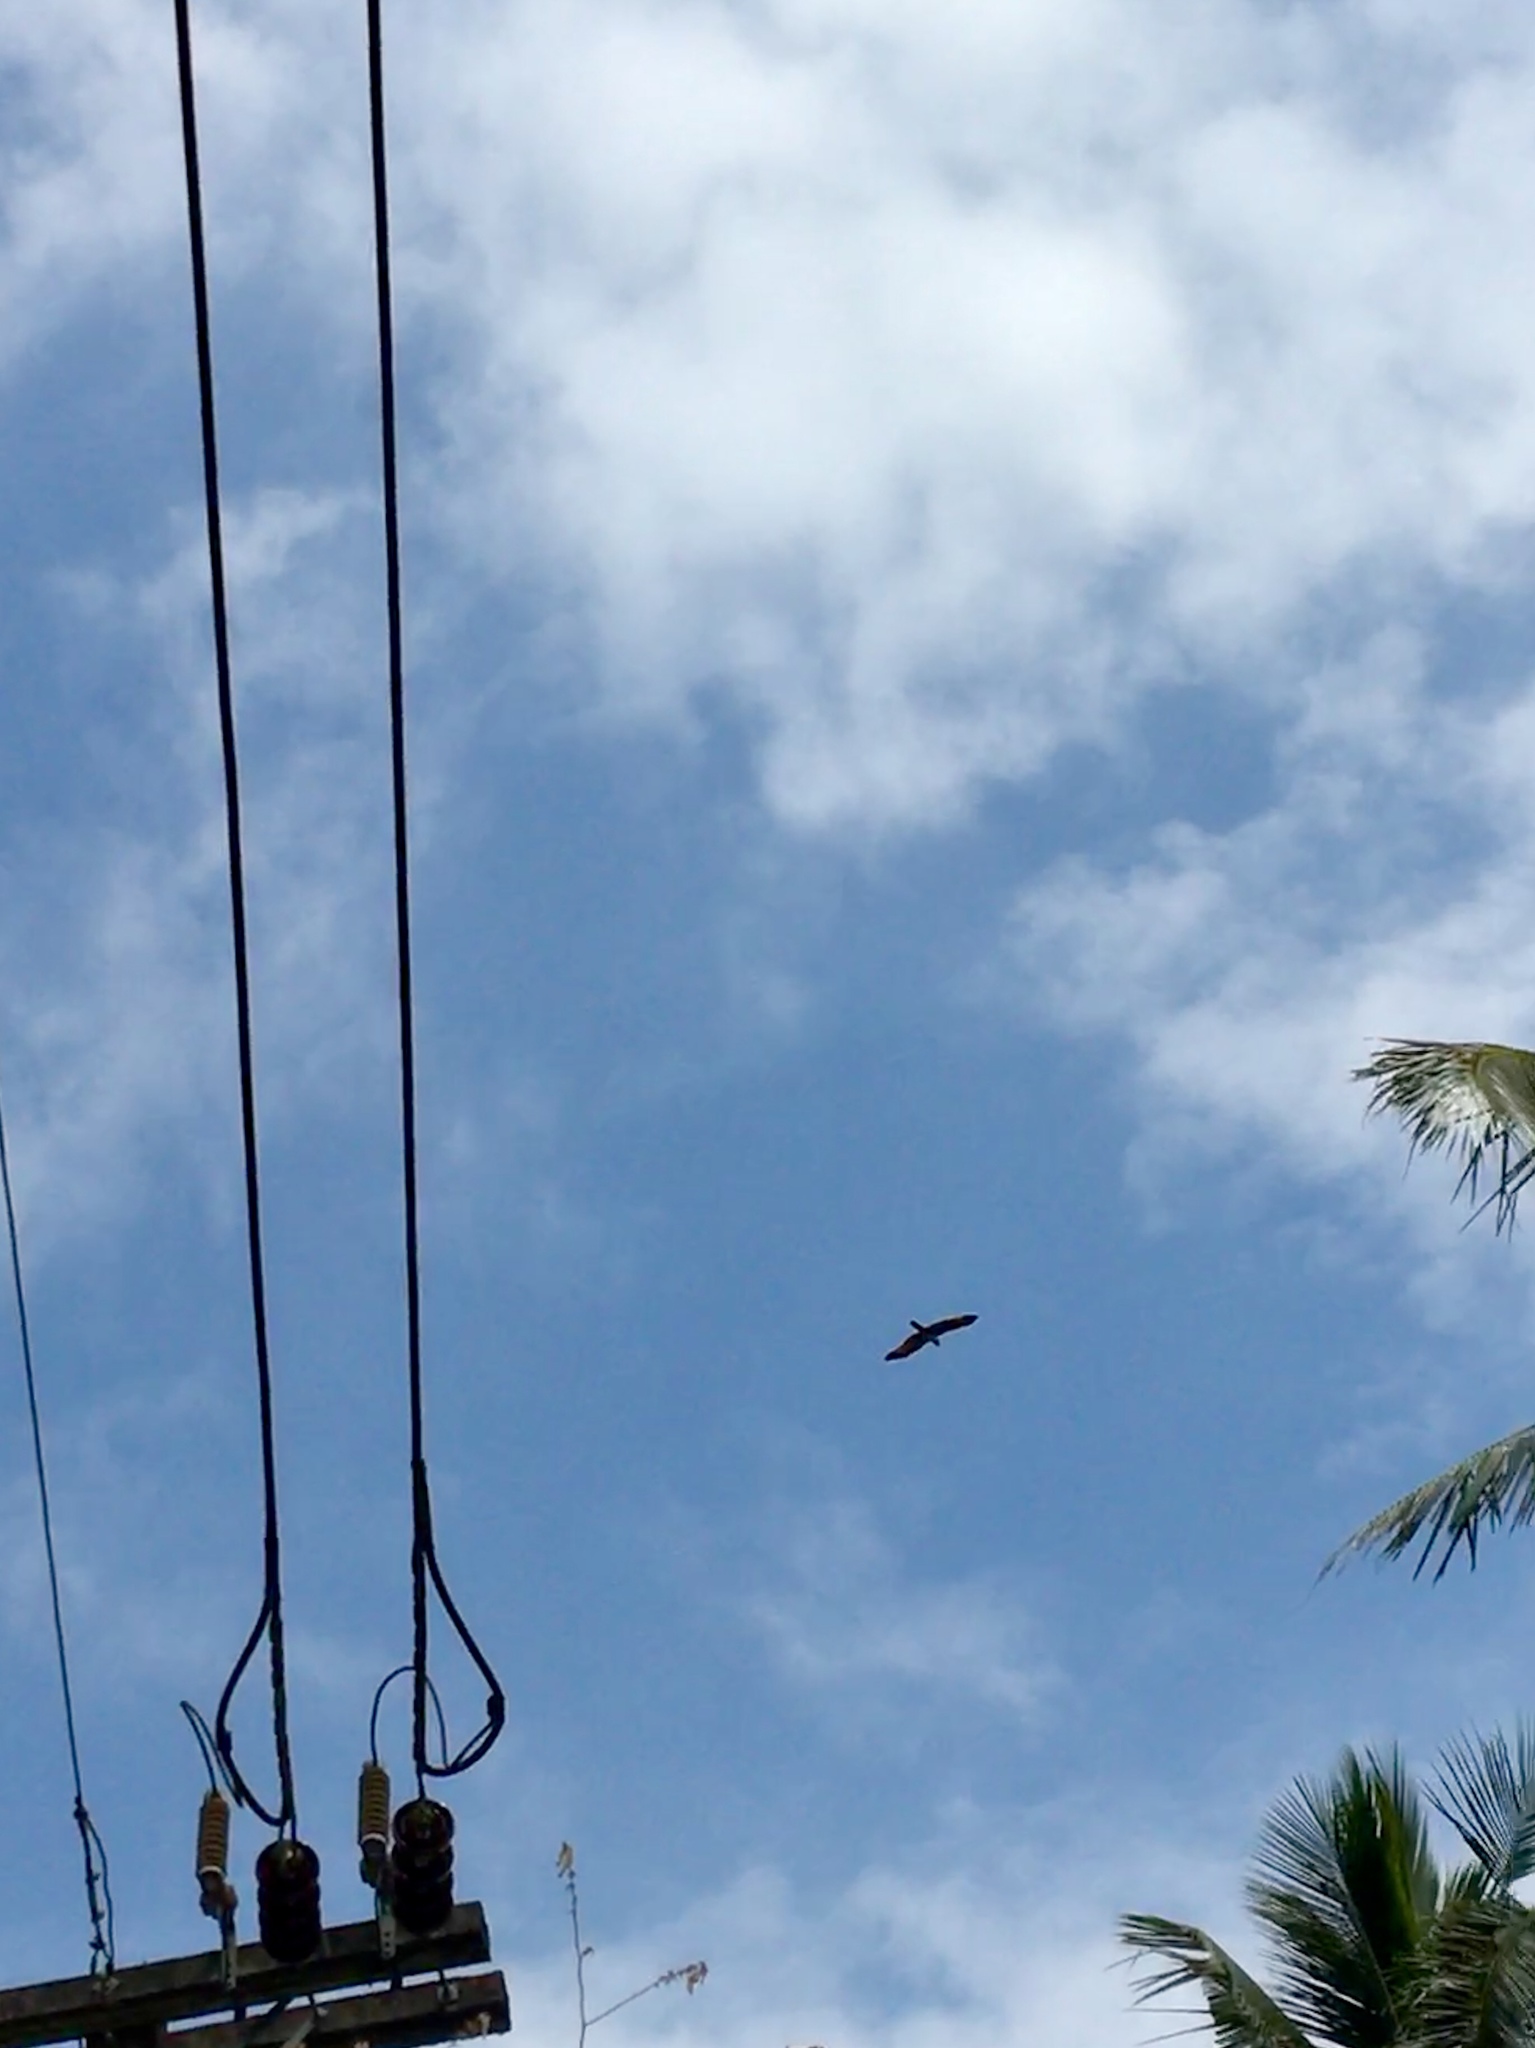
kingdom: Animalia
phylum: Chordata
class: Aves
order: Accipitriformes
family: Accipitridae
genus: Haliastur
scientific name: Haliastur indus
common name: Brahminy kite
